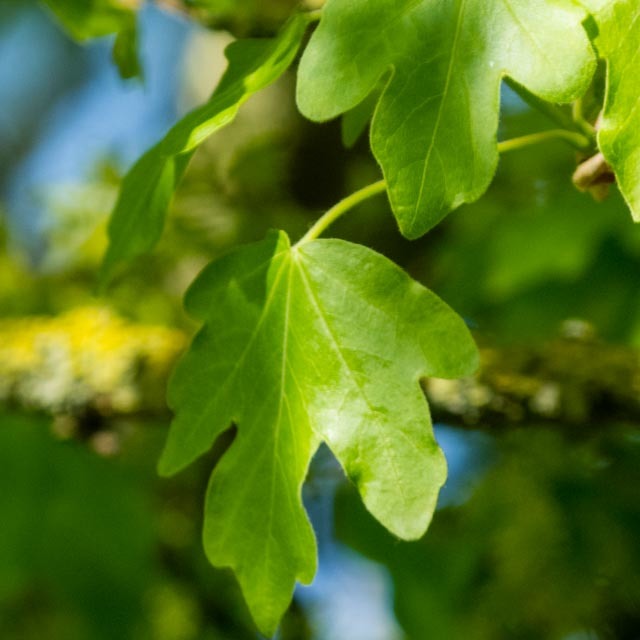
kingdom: Plantae
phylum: Tracheophyta
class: Magnoliopsida
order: Sapindales
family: Sapindaceae
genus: Acer
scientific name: Acer campestre
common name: Field maple
